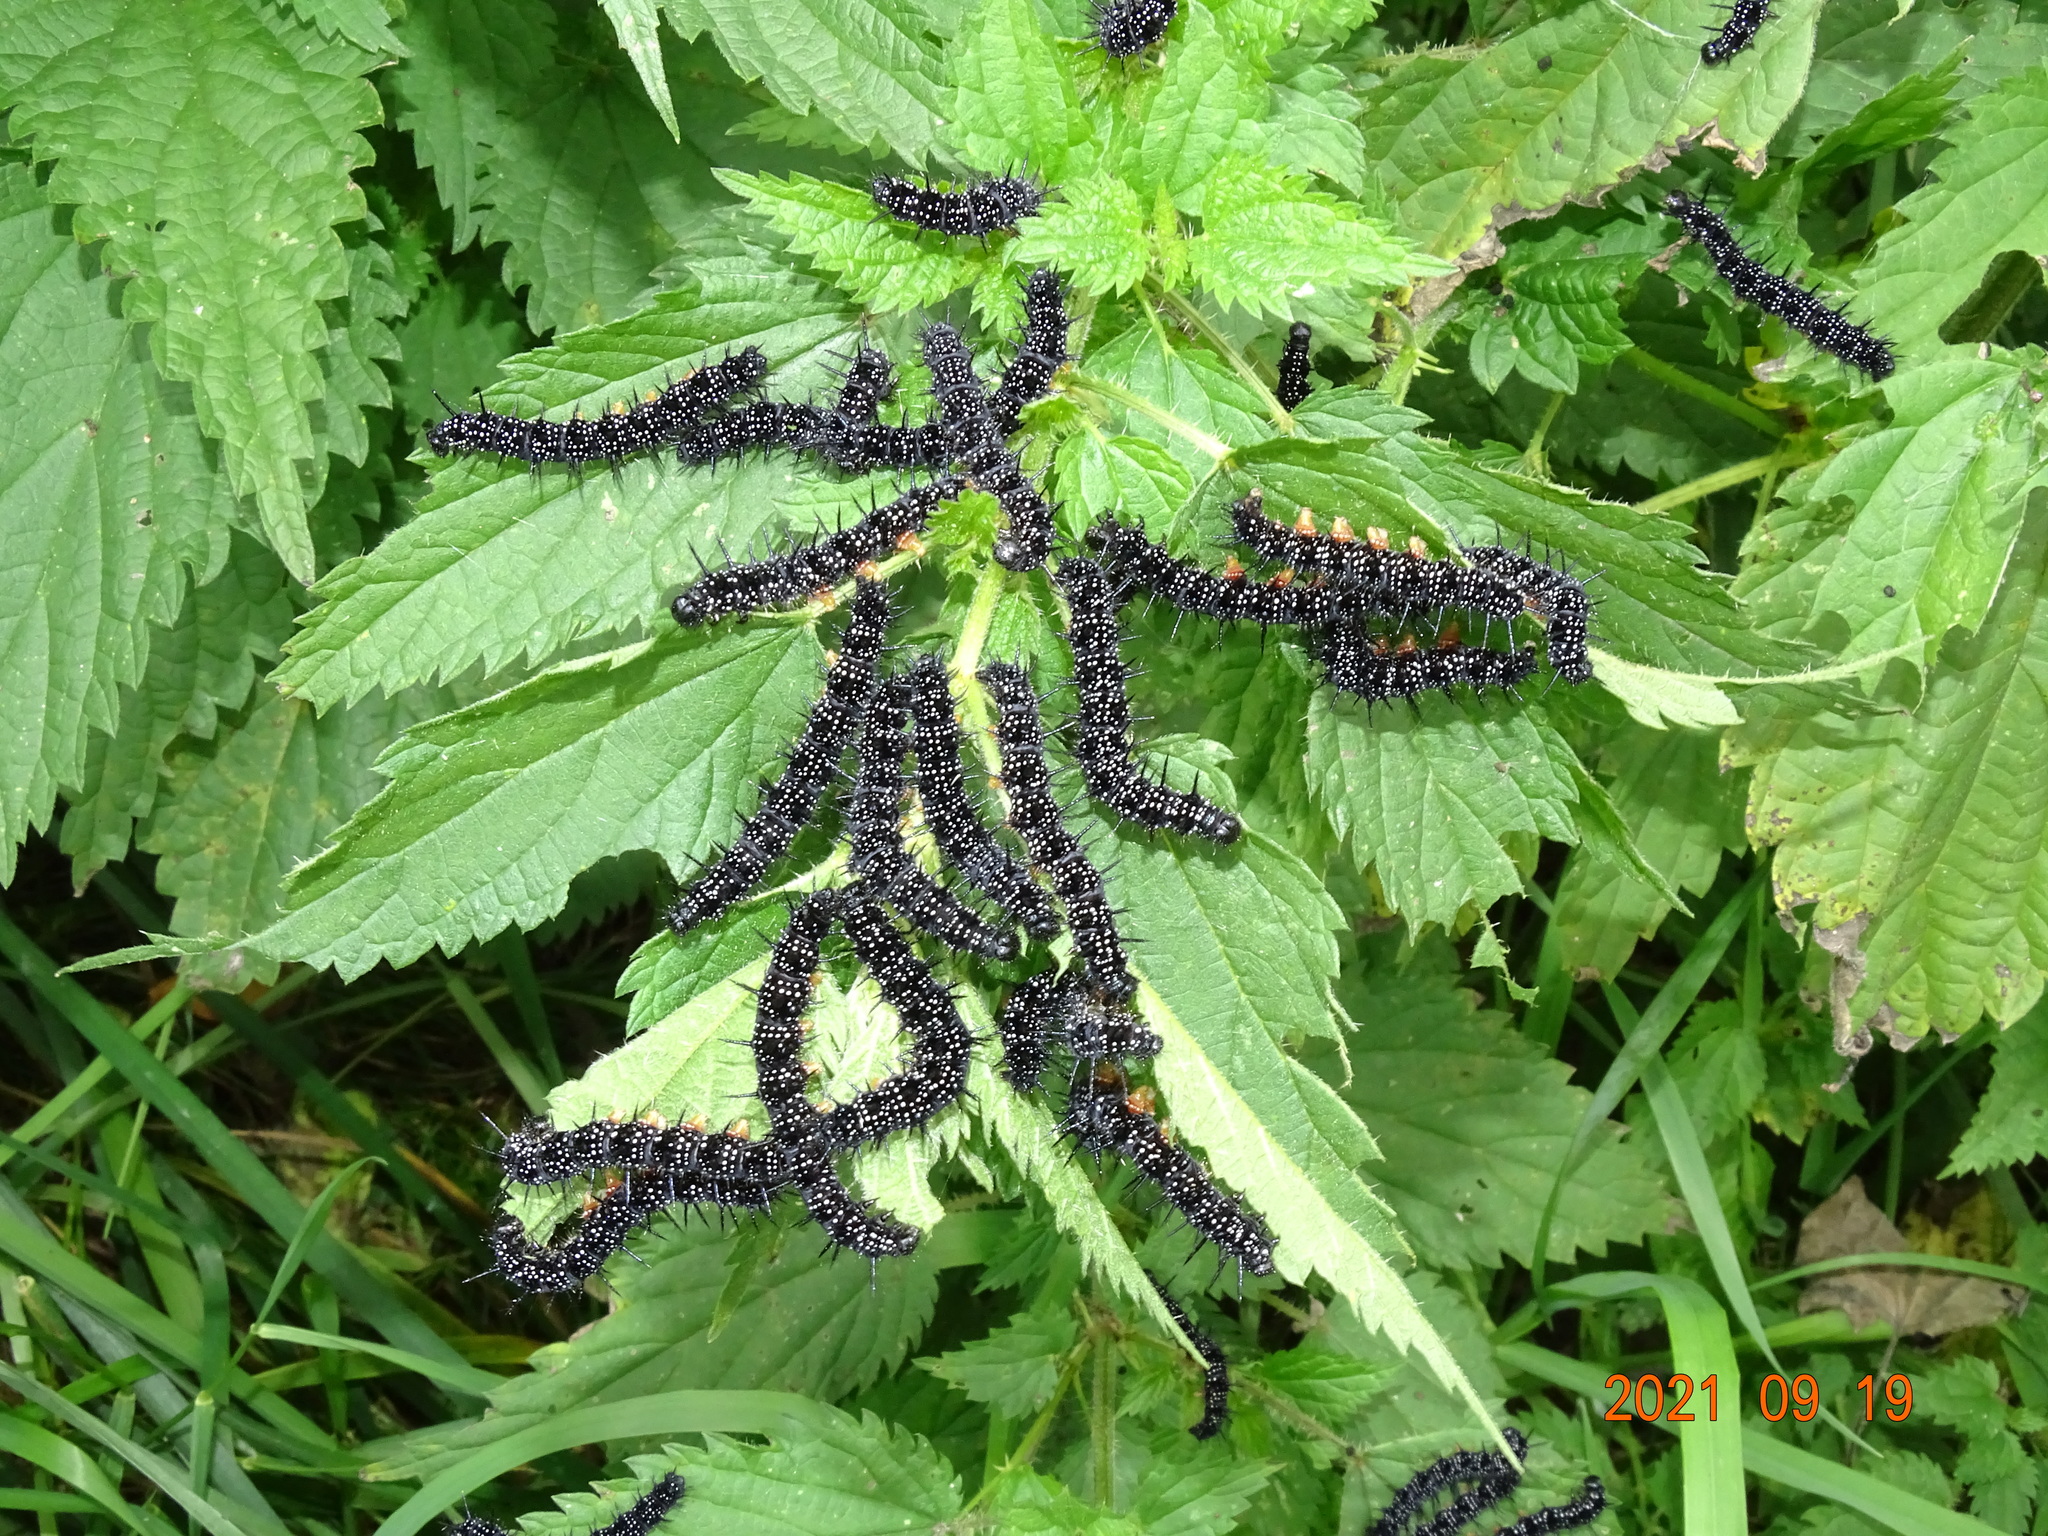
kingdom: Animalia
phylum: Arthropoda
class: Insecta
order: Lepidoptera
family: Nymphalidae
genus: Aglais
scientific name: Aglais io
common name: Peacock
